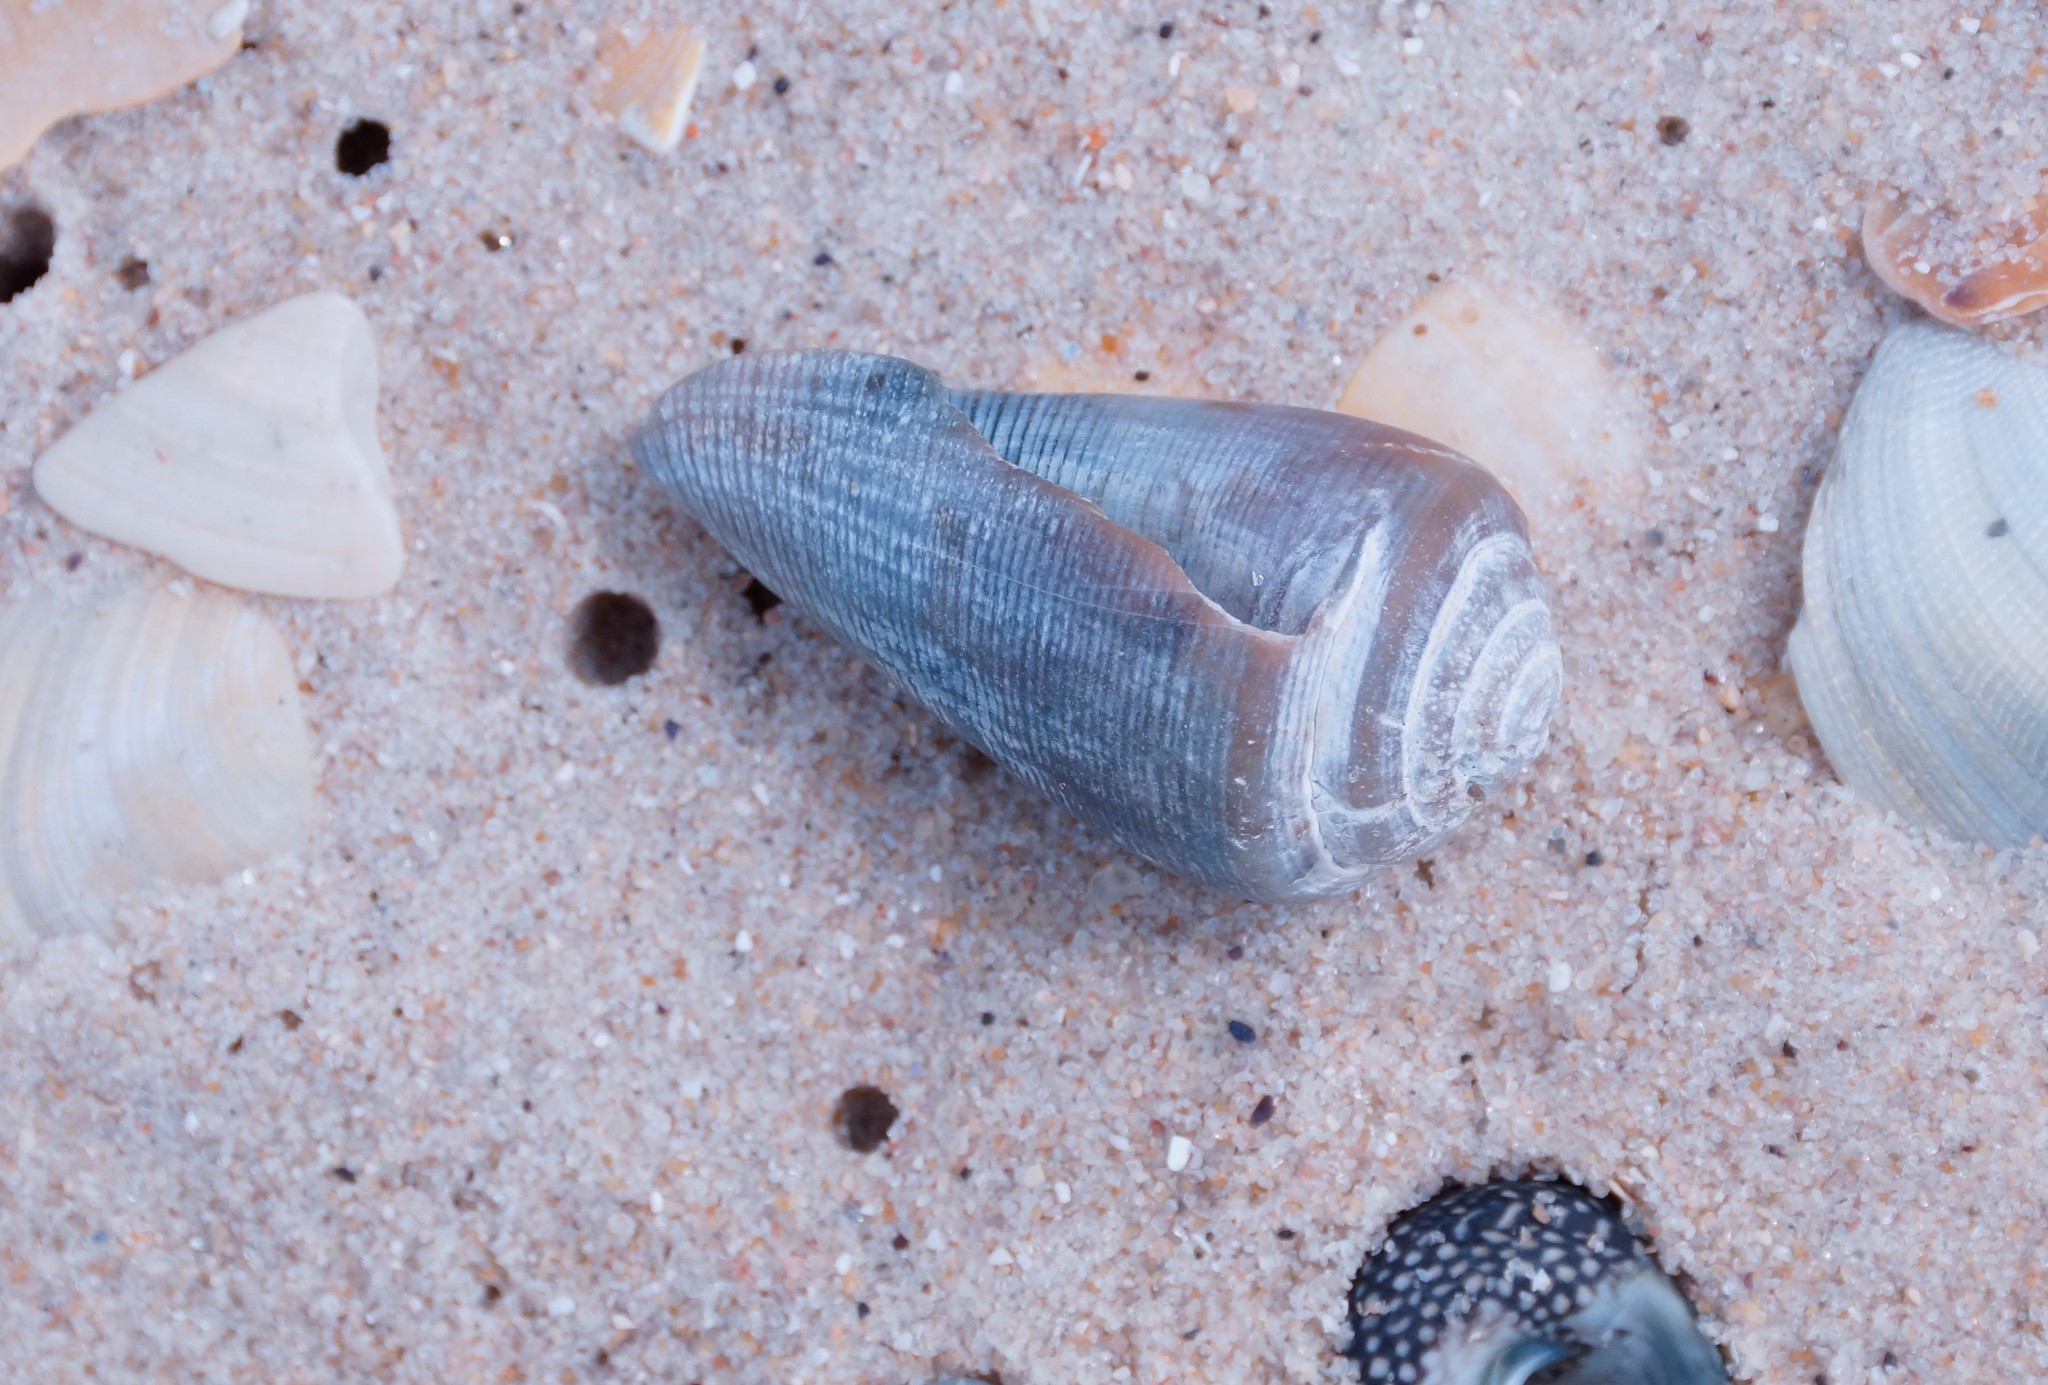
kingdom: Animalia
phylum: Mollusca
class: Gastropoda
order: Neogastropoda
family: Conidae
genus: Conus
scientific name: Conus anemone
